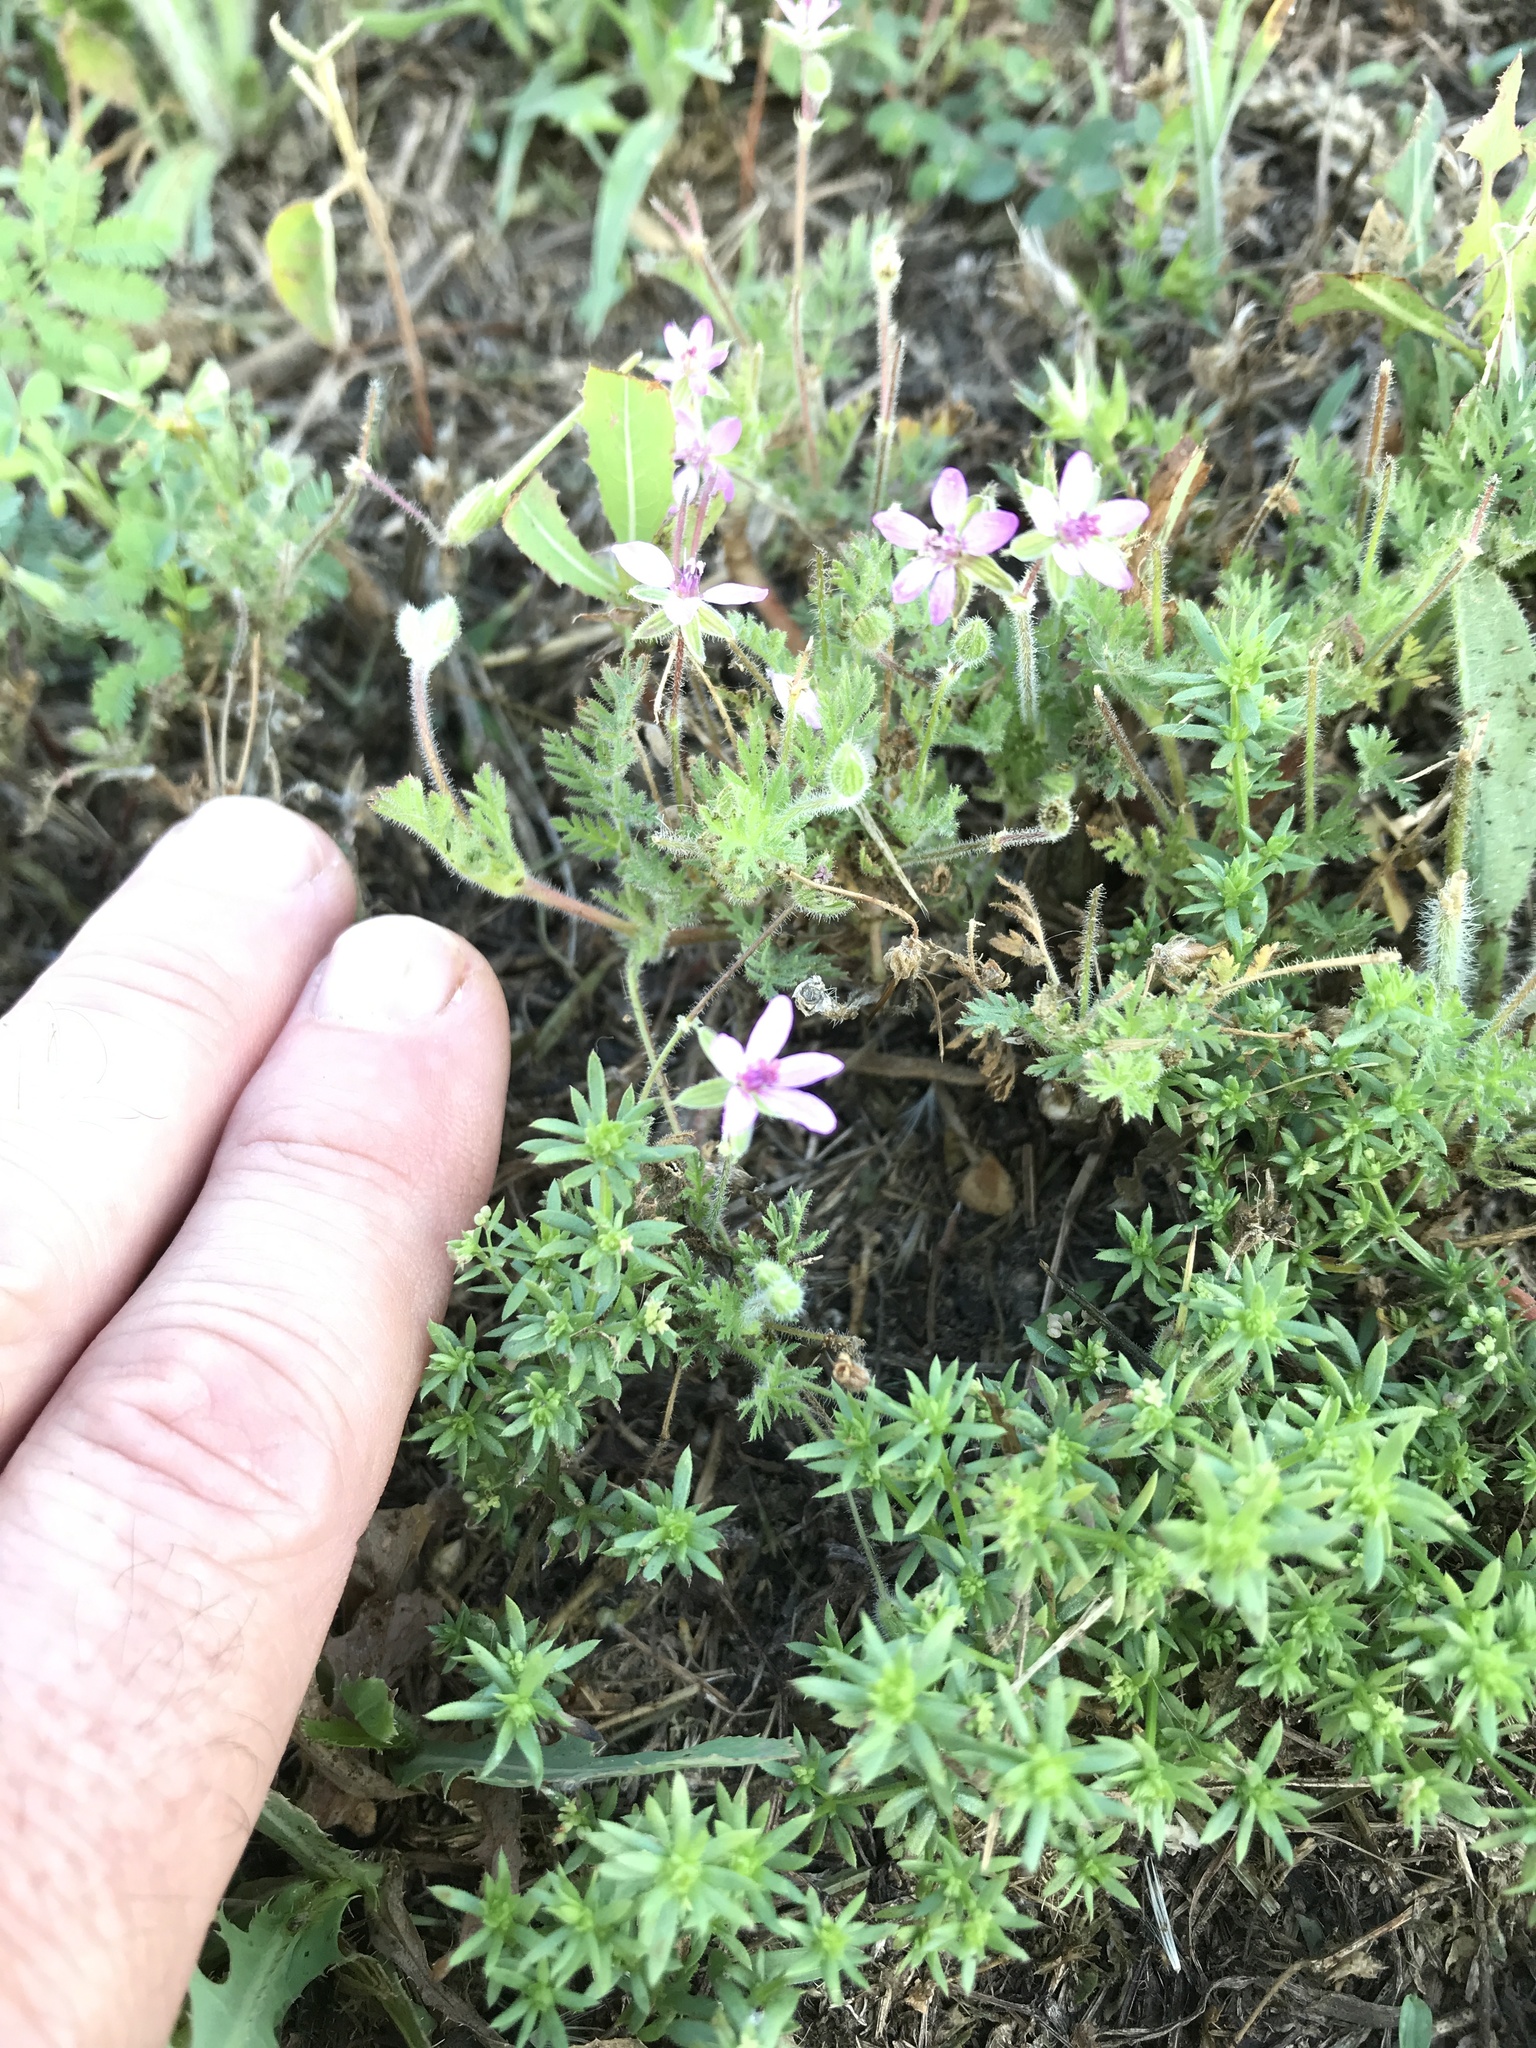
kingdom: Plantae
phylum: Tracheophyta
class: Magnoliopsida
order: Geraniales
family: Geraniaceae
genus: Erodium
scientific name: Erodium cicutarium
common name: Common stork's-bill
